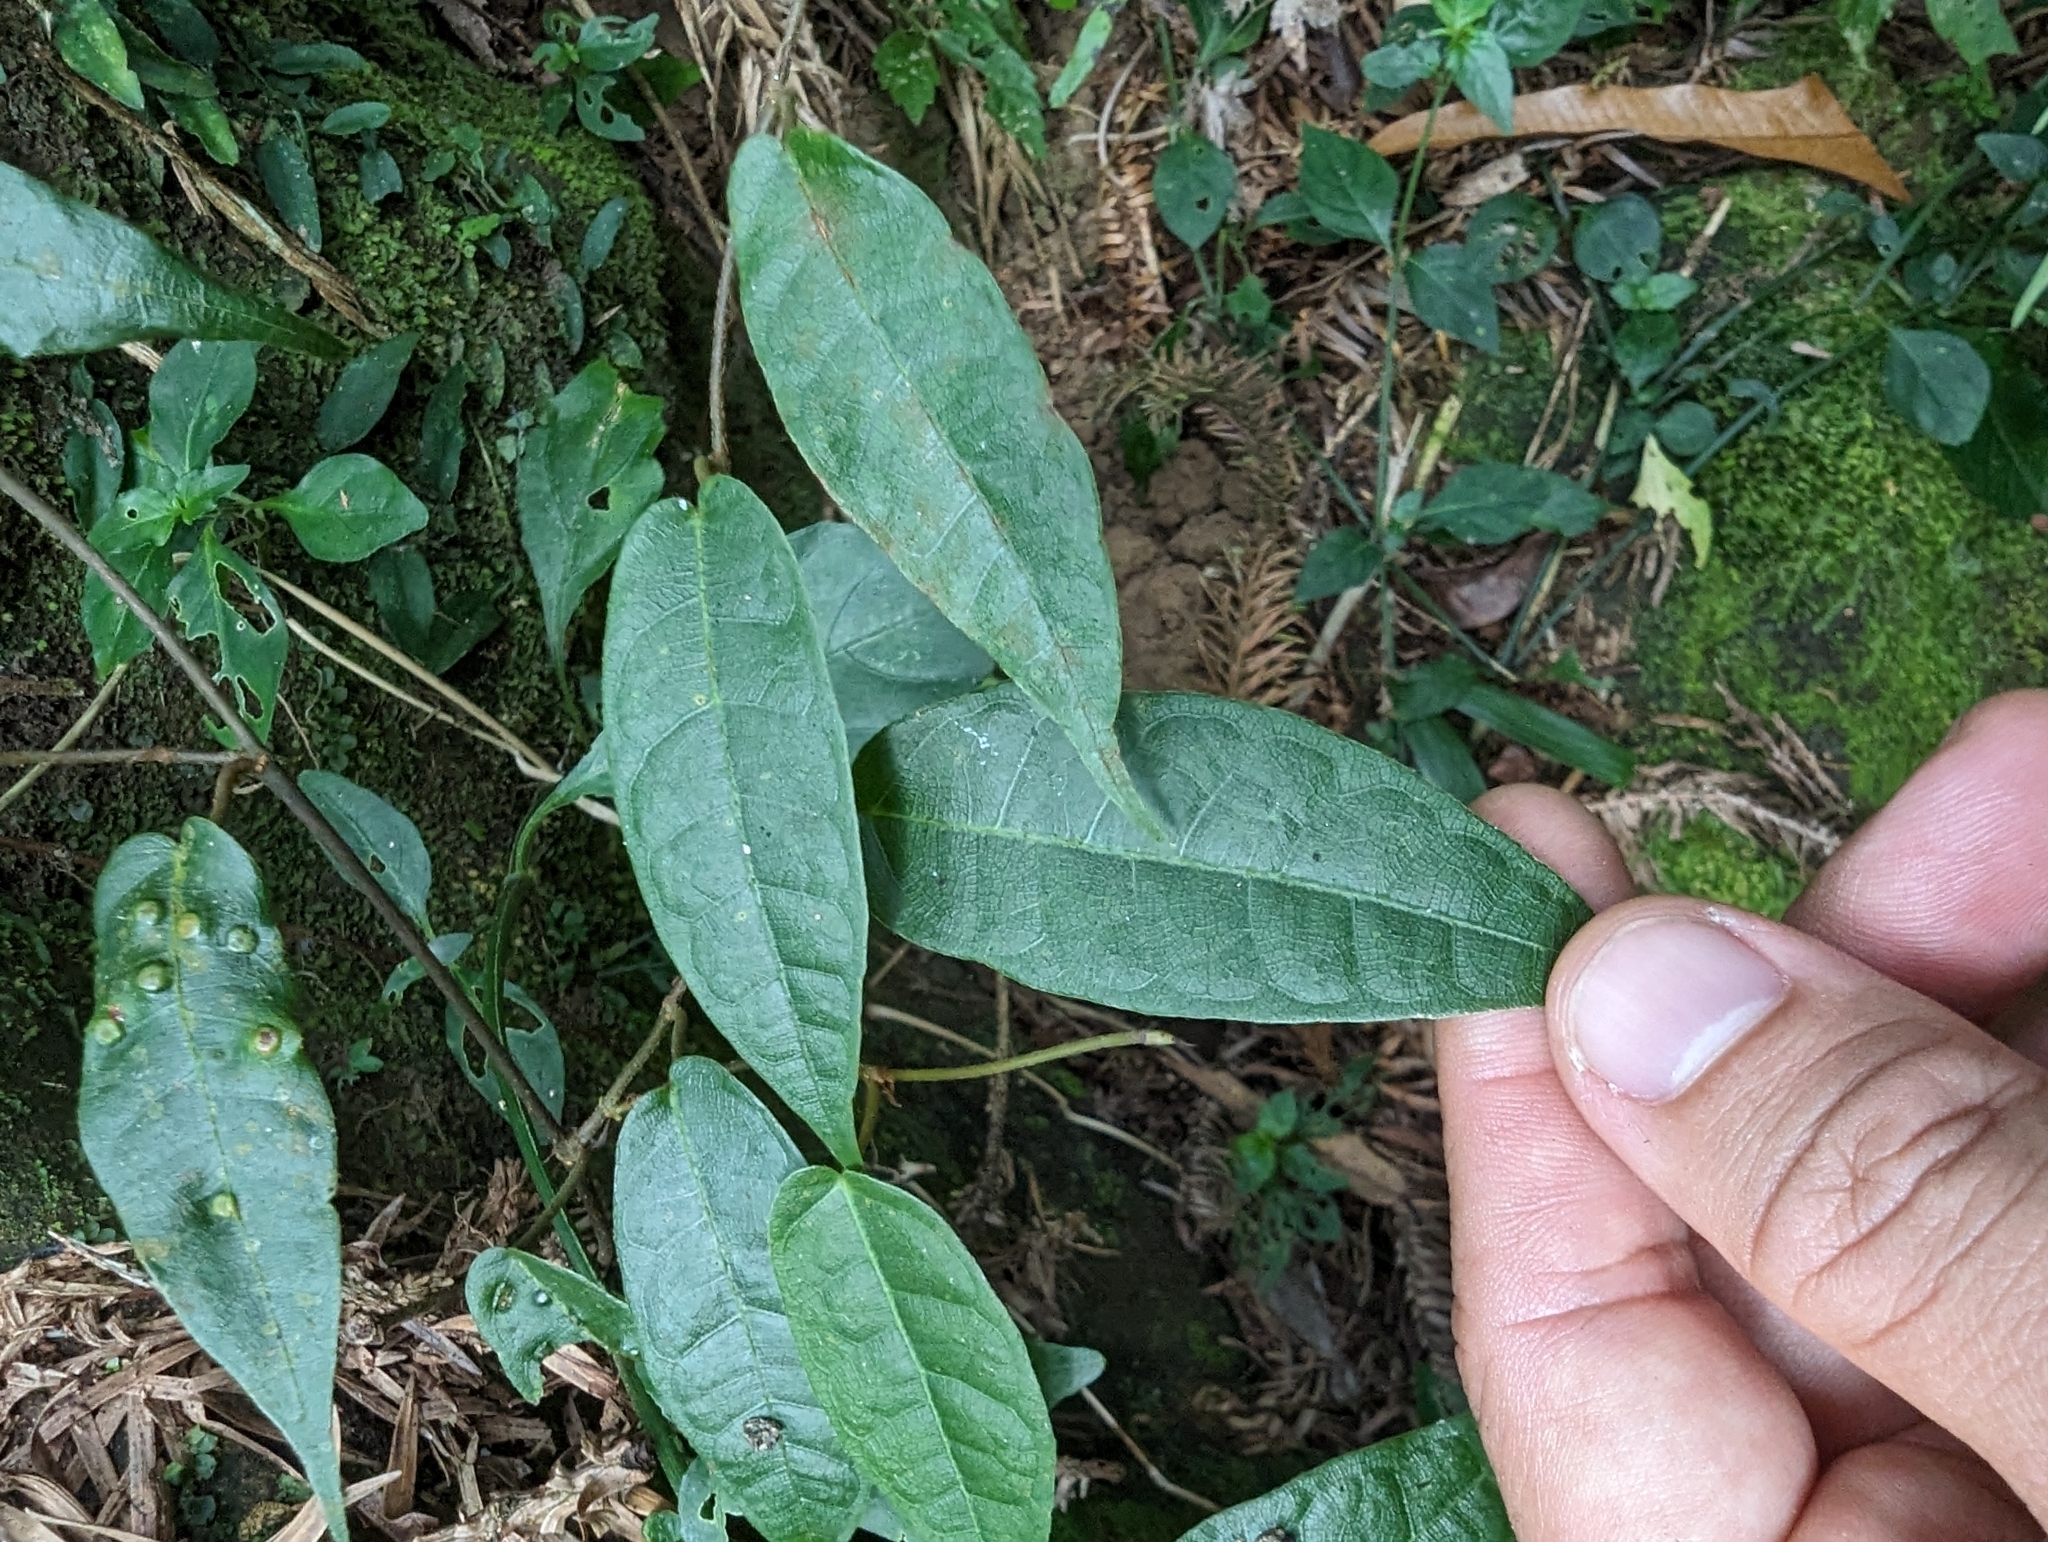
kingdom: Plantae
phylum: Tracheophyta
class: Magnoliopsida
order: Rosales
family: Moraceae
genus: Ficus
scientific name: Ficus sarmentosa
